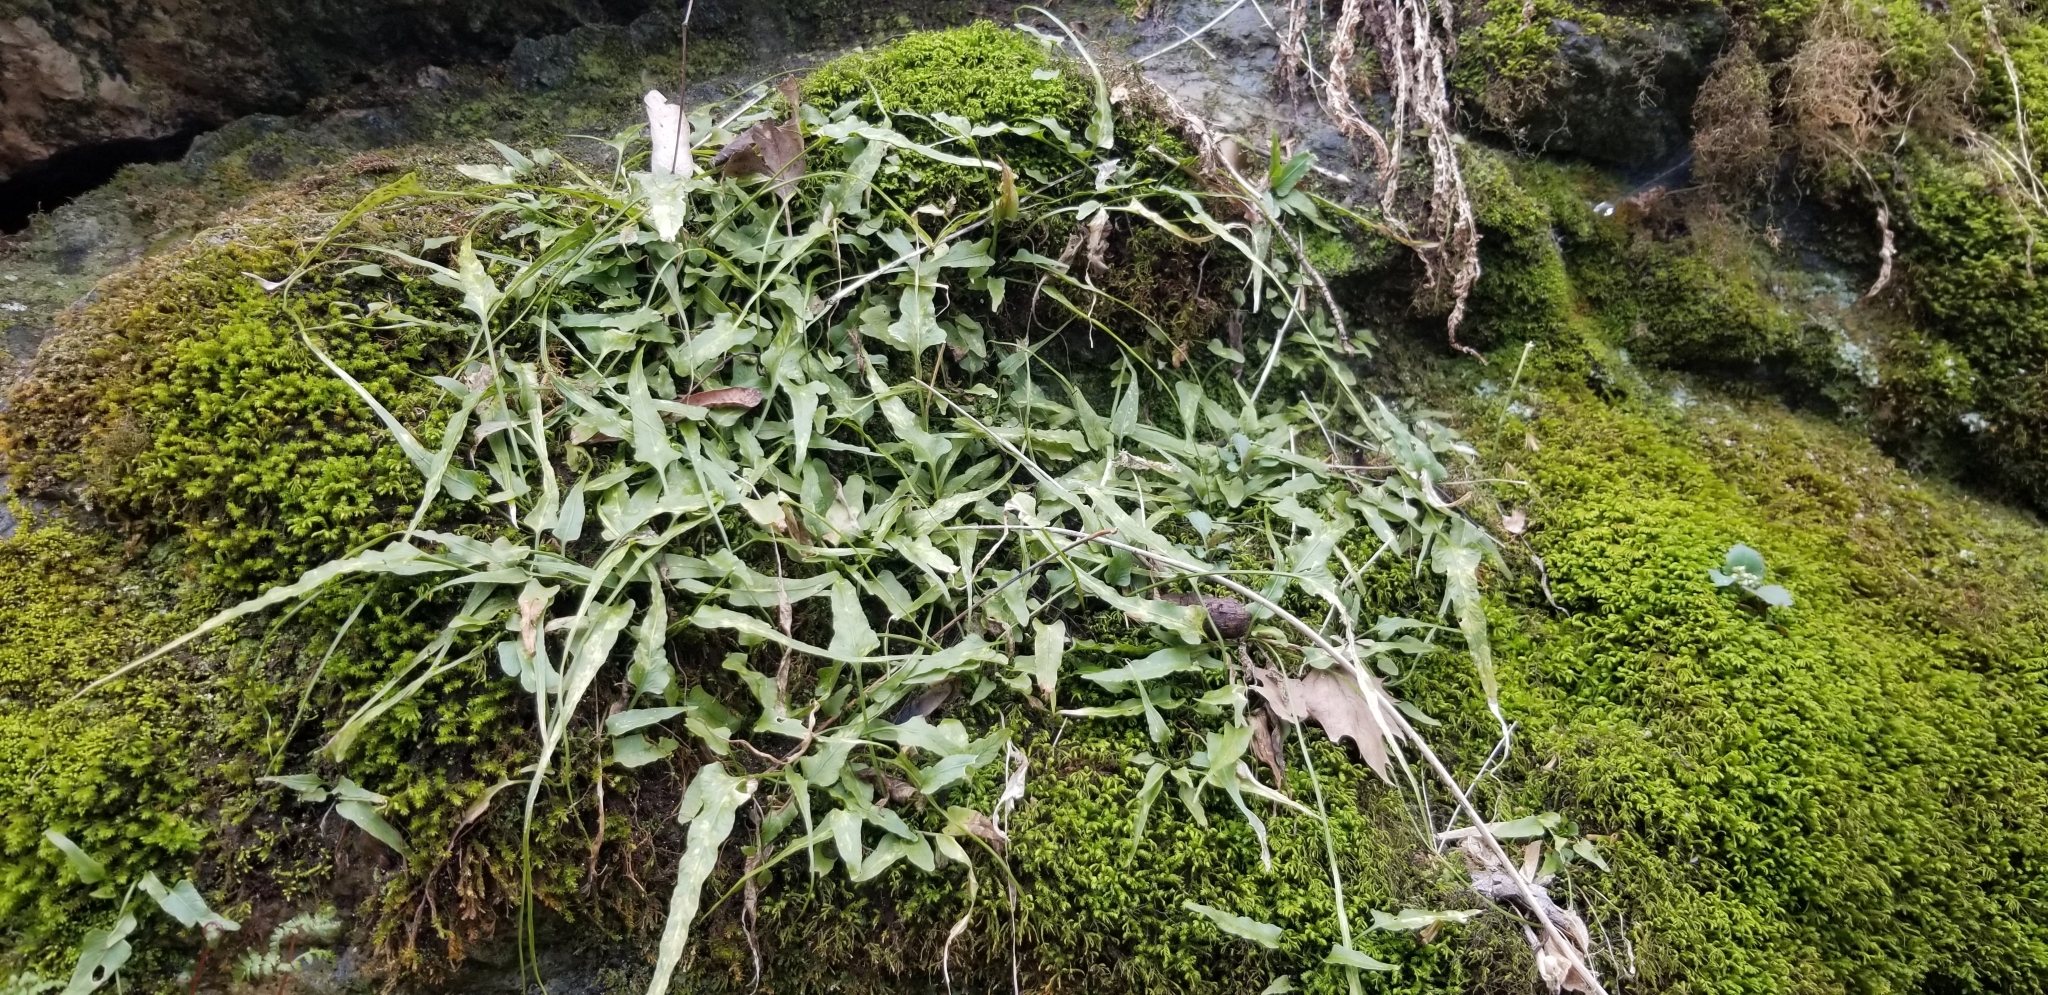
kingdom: Plantae
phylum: Tracheophyta
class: Polypodiopsida
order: Polypodiales
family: Aspleniaceae
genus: Asplenium
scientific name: Asplenium rhizophyllum
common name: Walking fern
